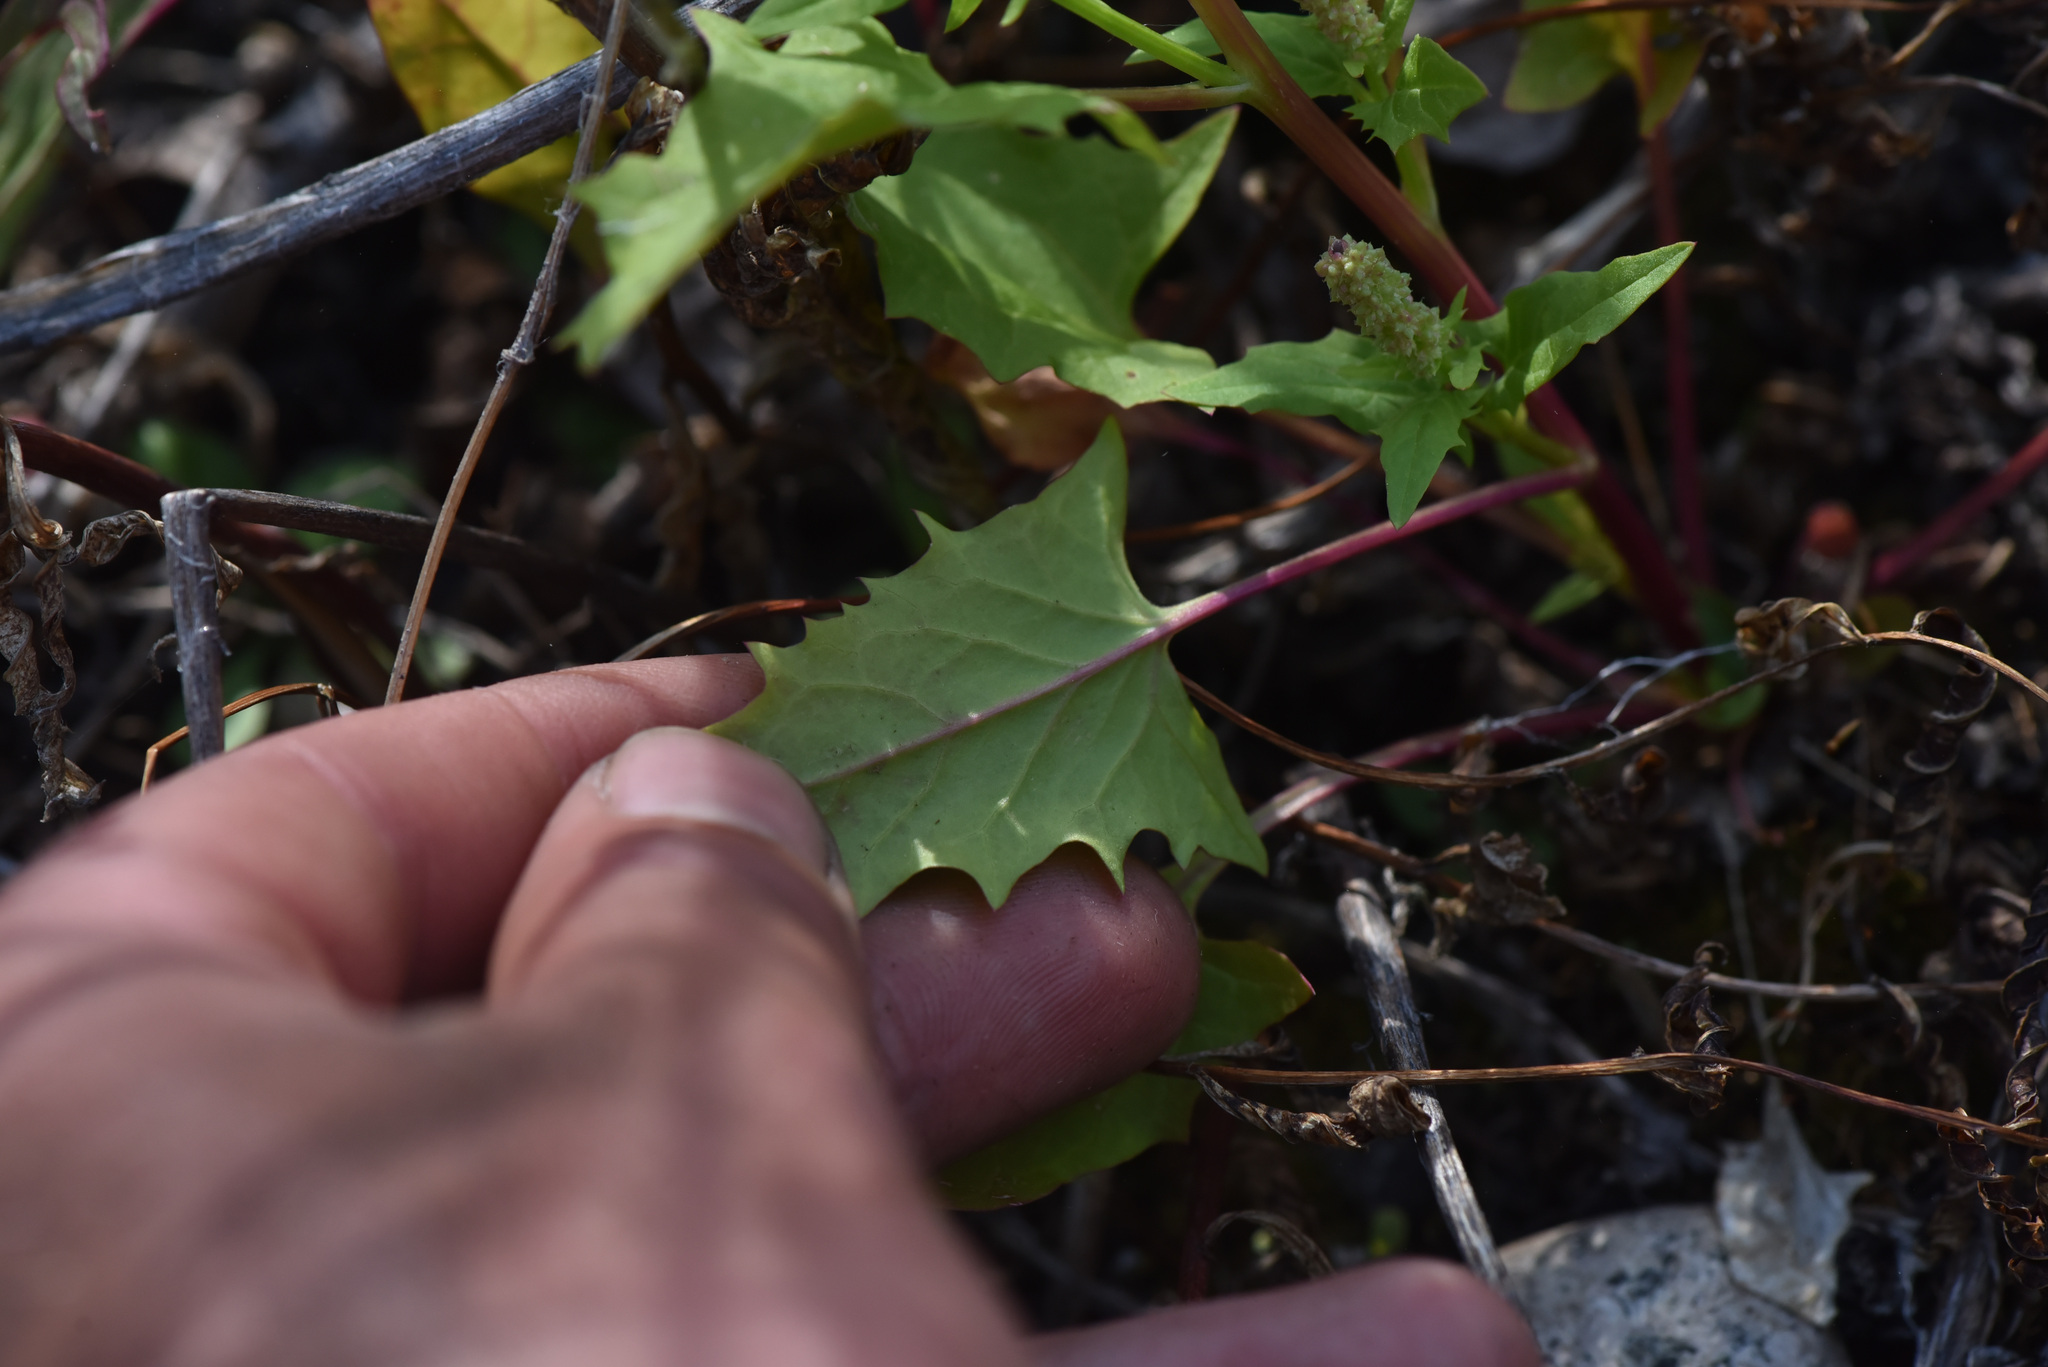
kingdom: Plantae
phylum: Tracheophyta
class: Magnoliopsida
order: Caryophyllales
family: Amaranthaceae
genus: Blitum
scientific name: Blitum capitatum
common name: Strawberry-blight
